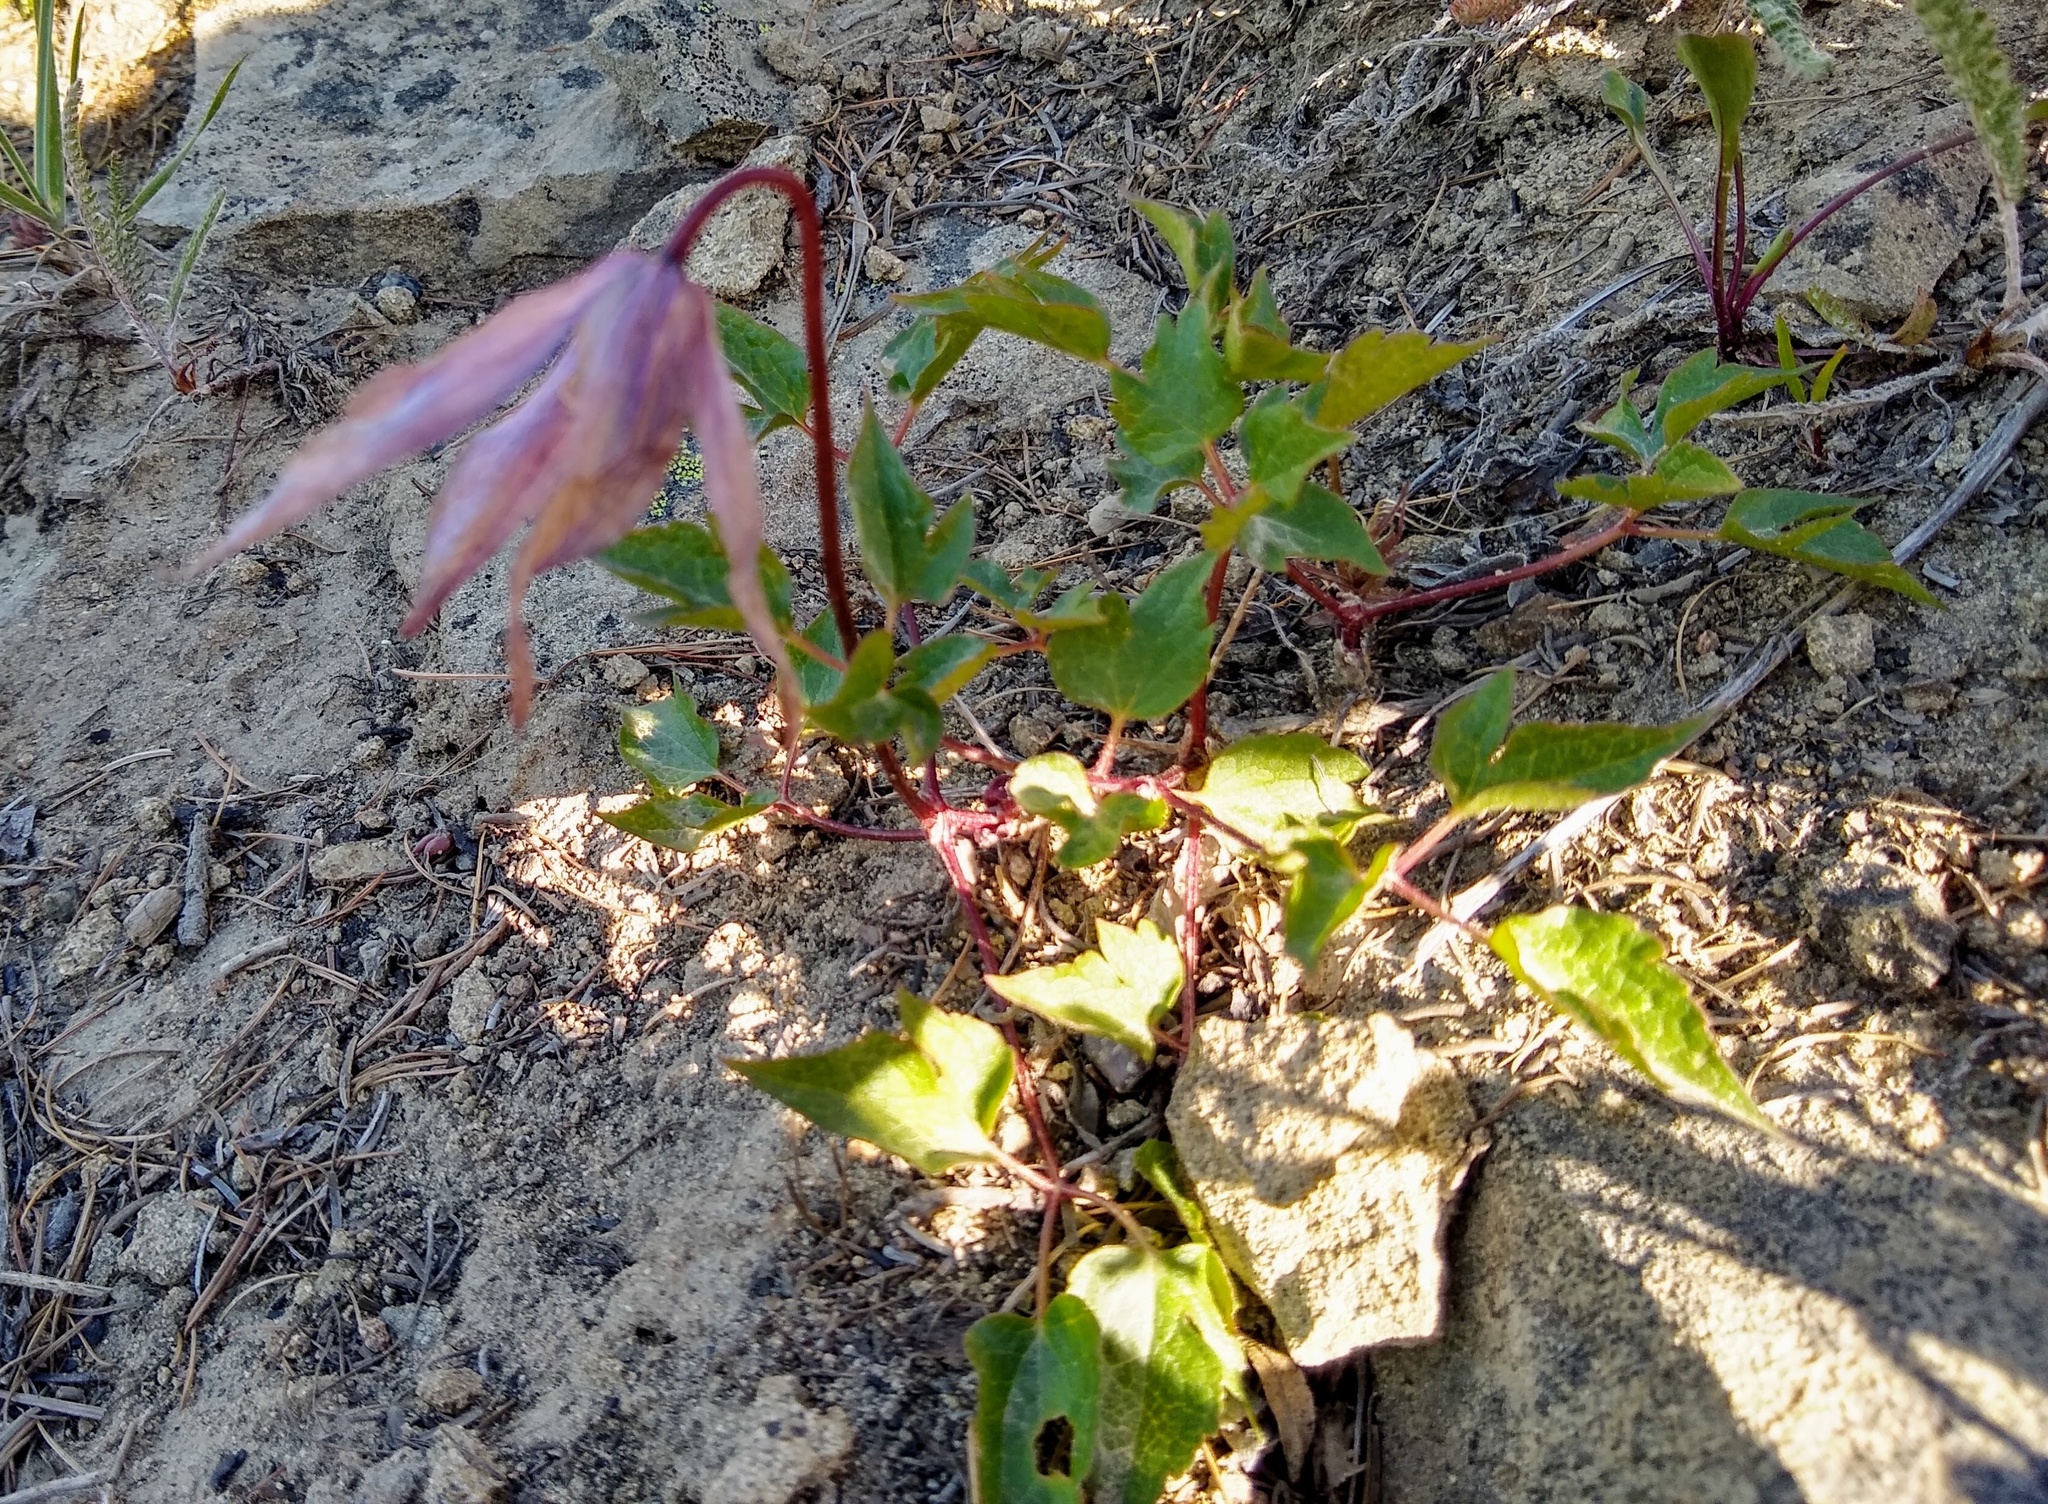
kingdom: Plantae
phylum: Tracheophyta
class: Magnoliopsida
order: Ranunculales
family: Ranunculaceae
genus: Clematis
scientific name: Clematis occidentalis
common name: Purple clematis
